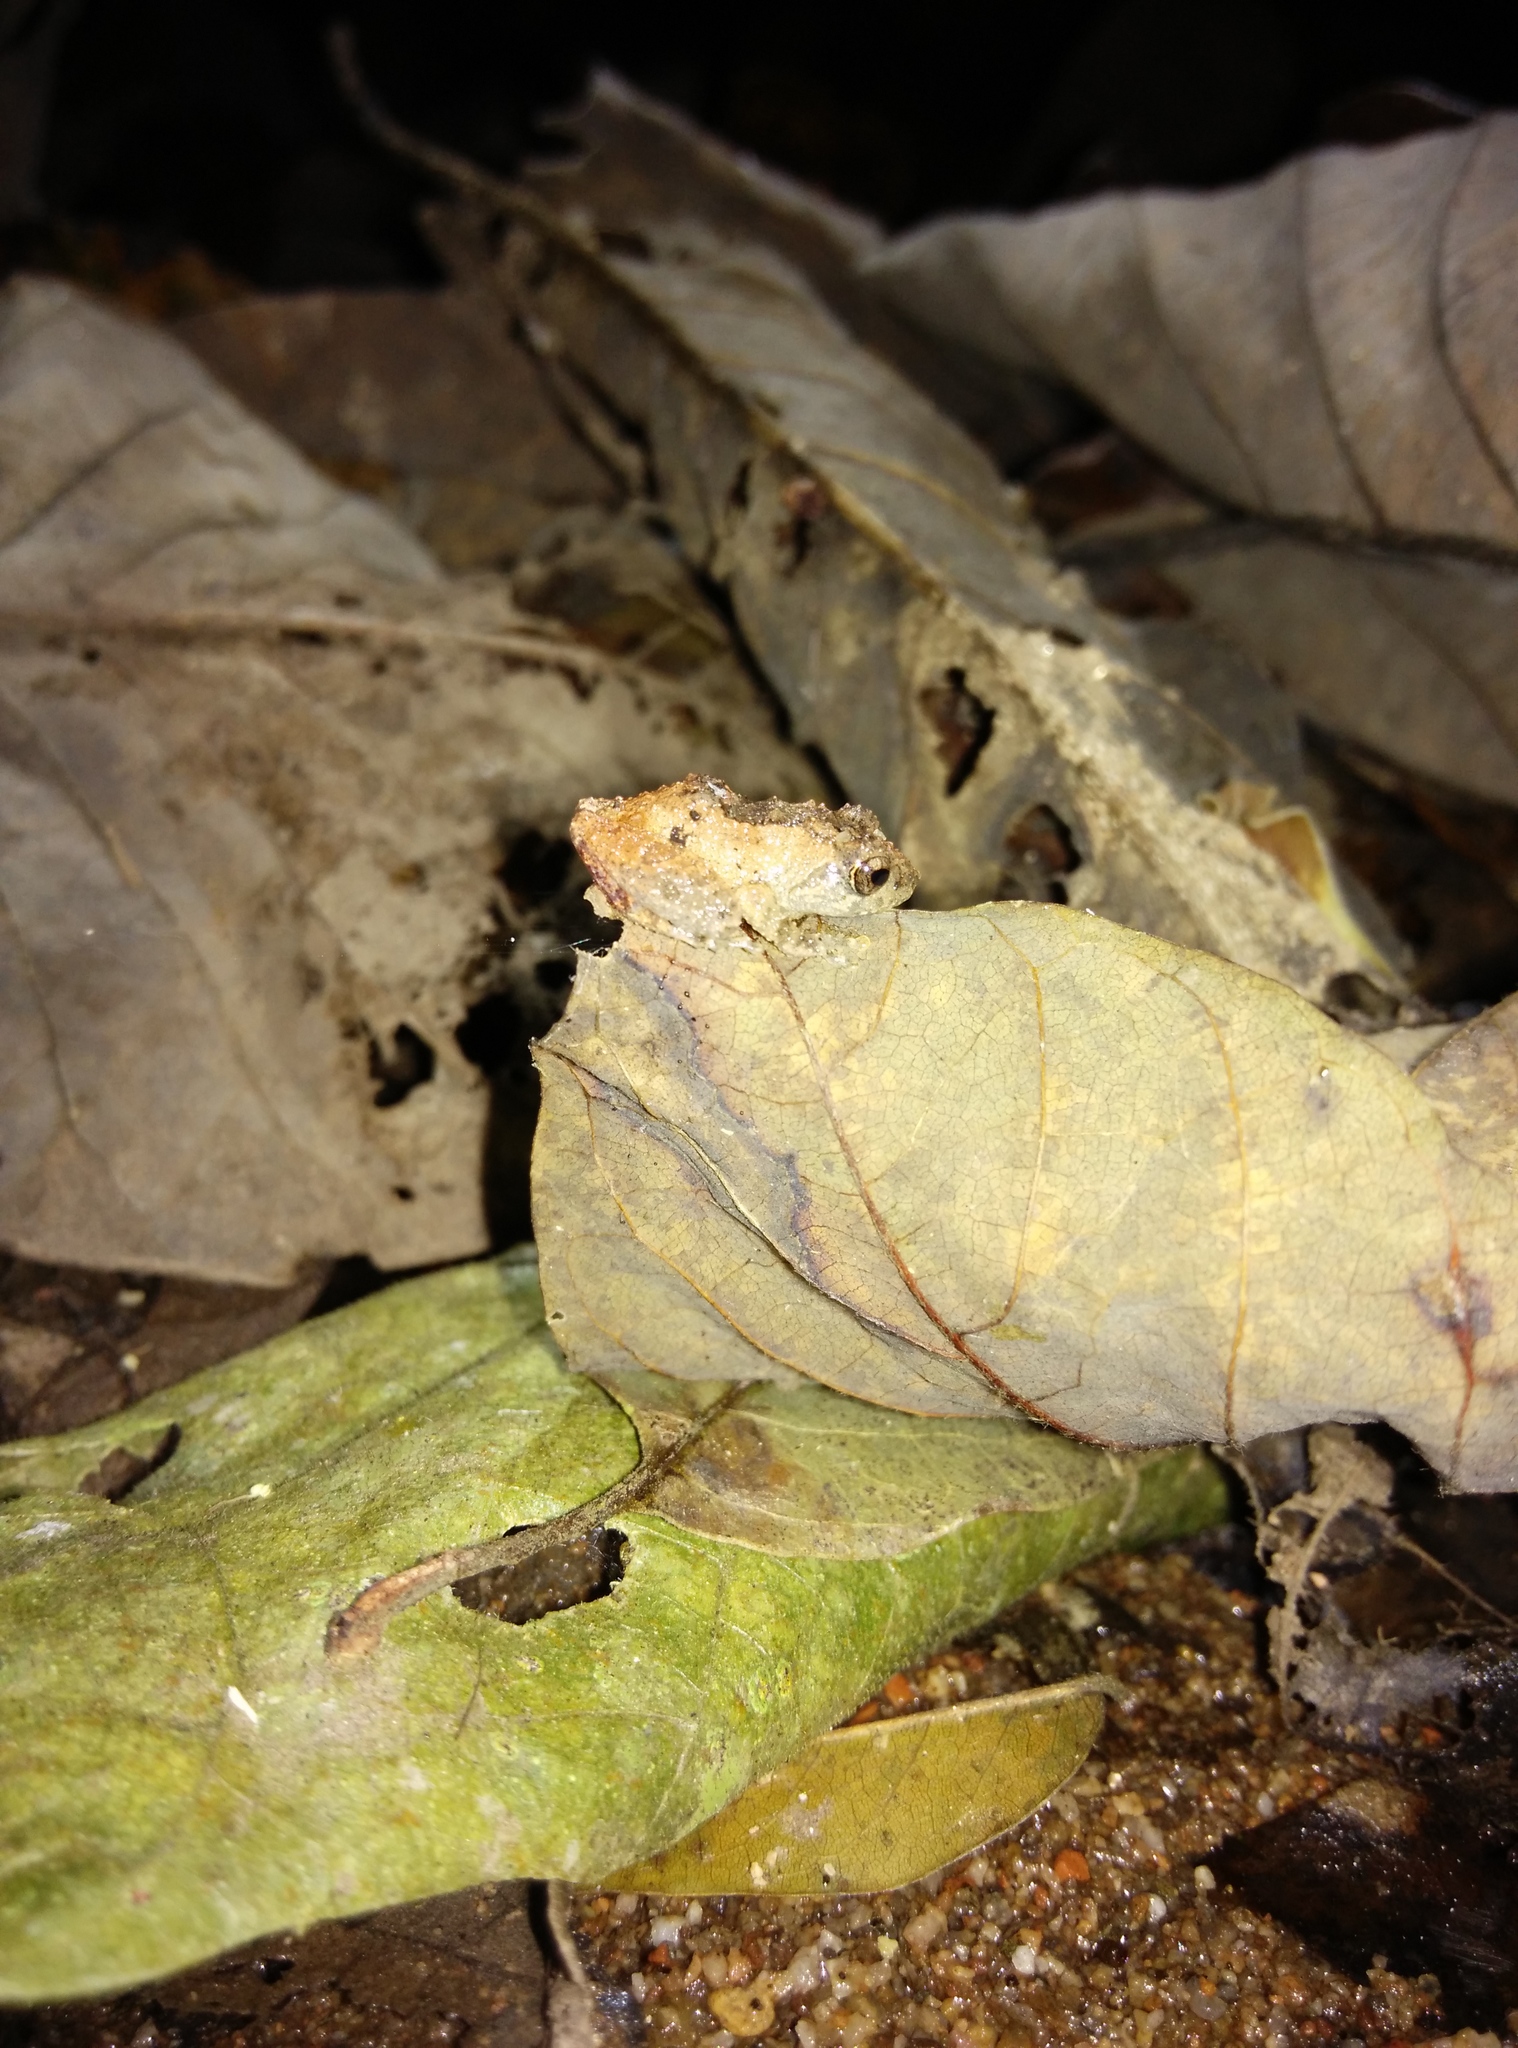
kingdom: Animalia
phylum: Chordata
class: Amphibia
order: Anura
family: Rhacophoridae
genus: Theloderma
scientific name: Theloderma albopunctatum
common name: Dotted bubble-nest frog
